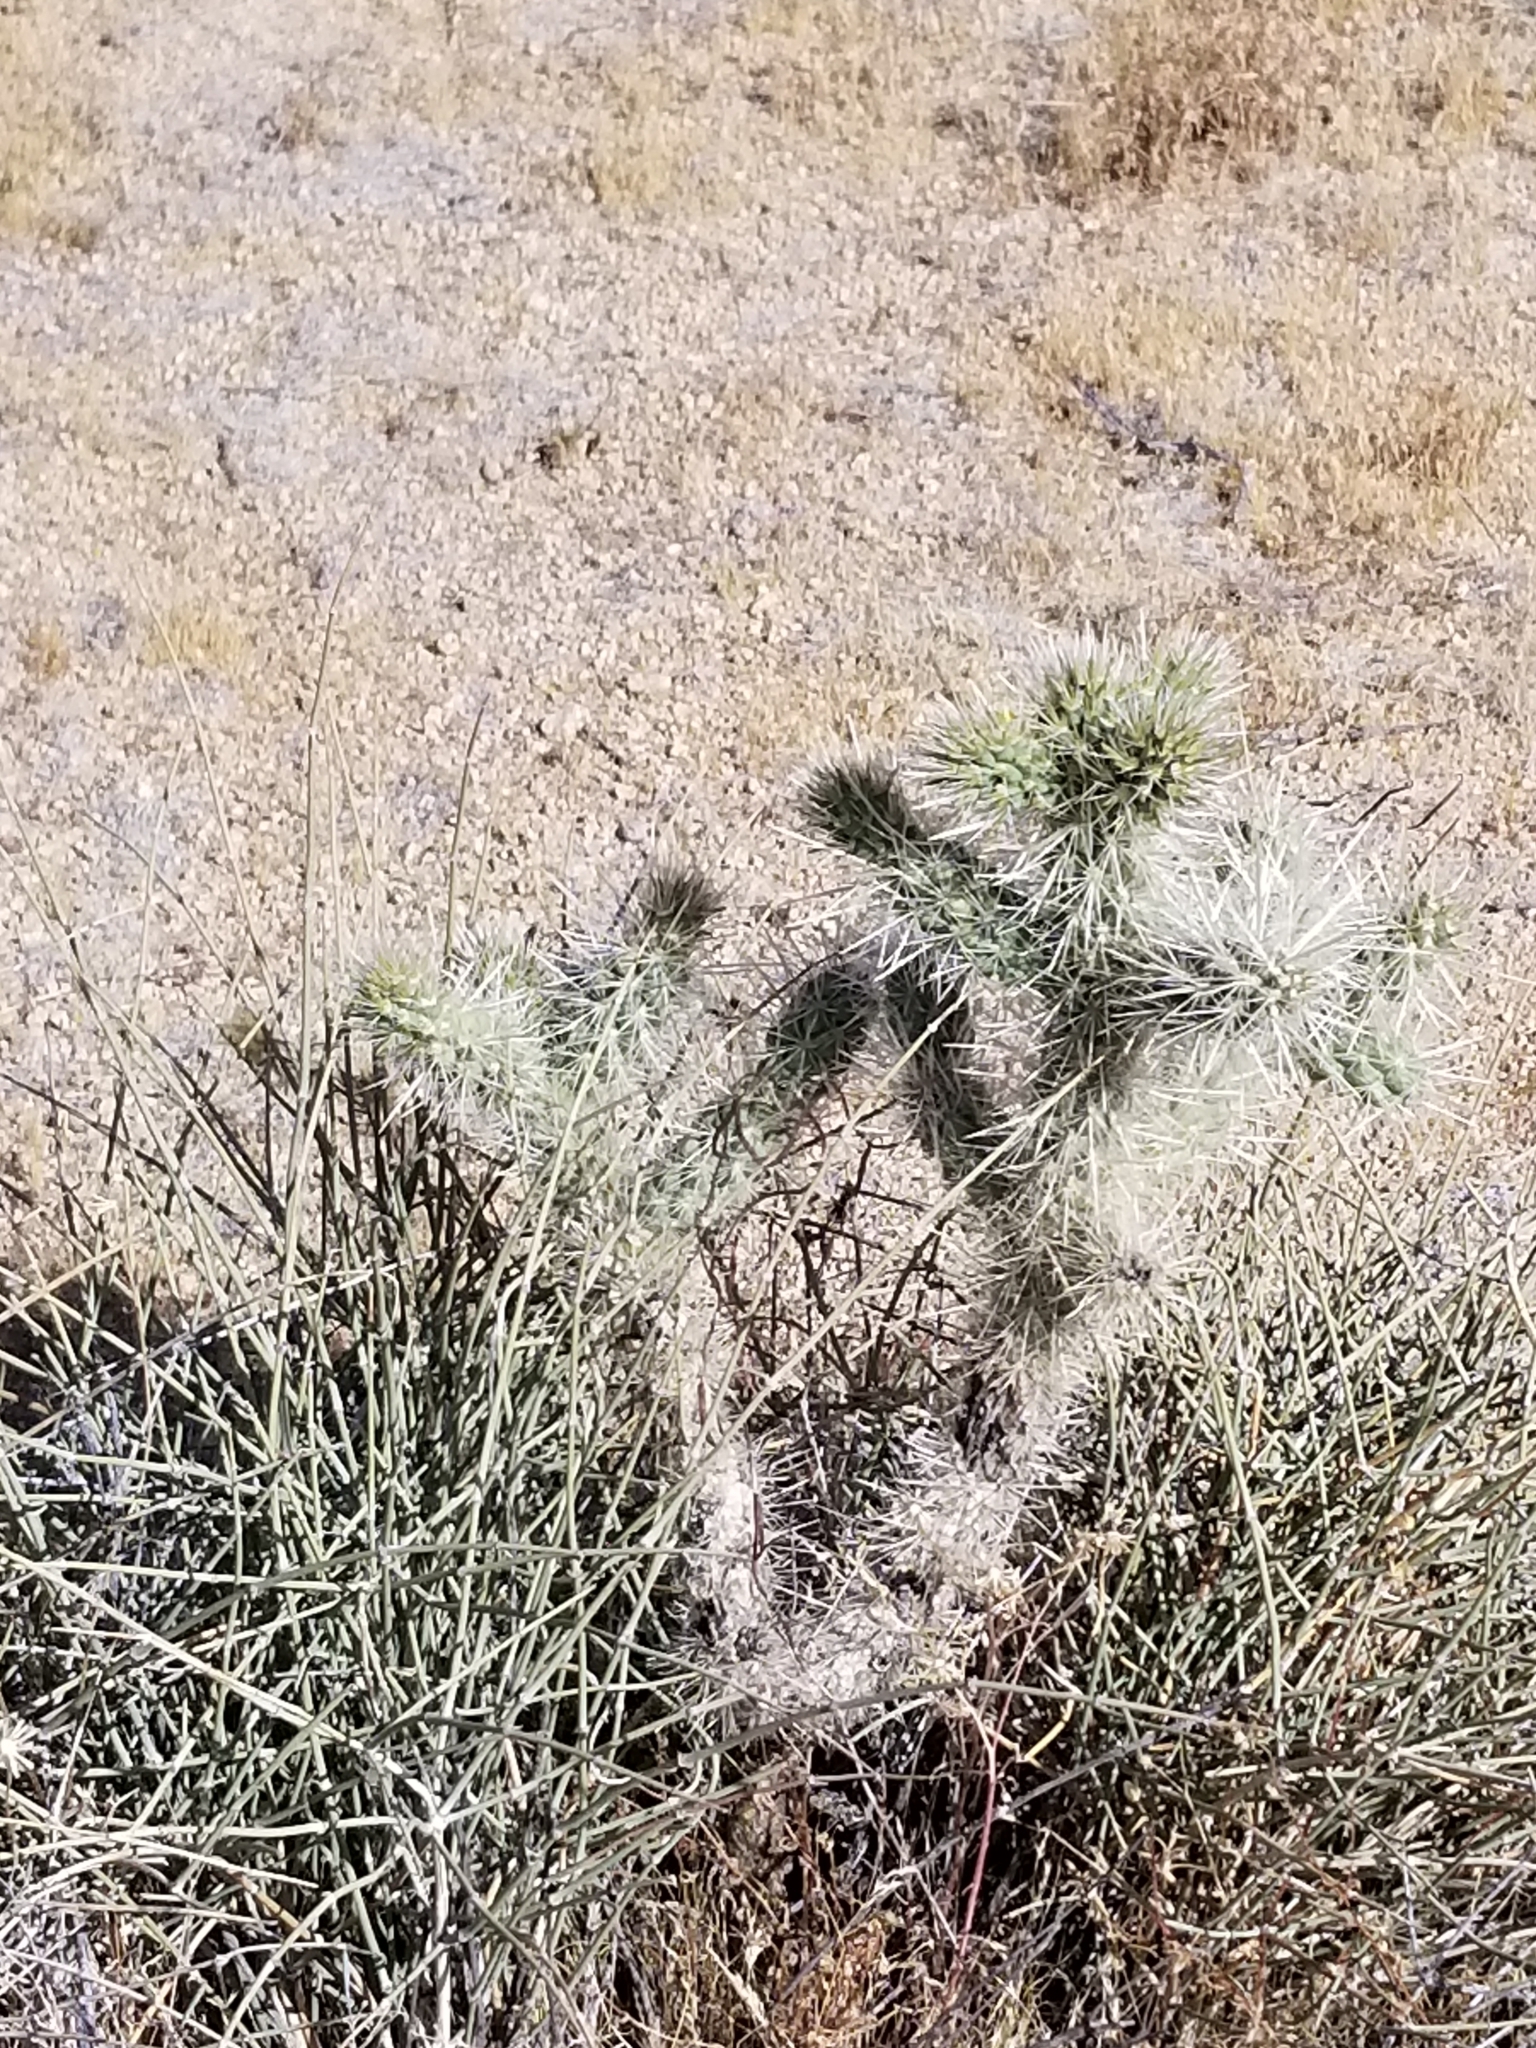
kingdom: Plantae
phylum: Tracheophyta
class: Magnoliopsida
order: Caryophyllales
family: Cactaceae
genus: Cylindropuntia
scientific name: Cylindropuntia echinocarpa
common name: Ground cholla
